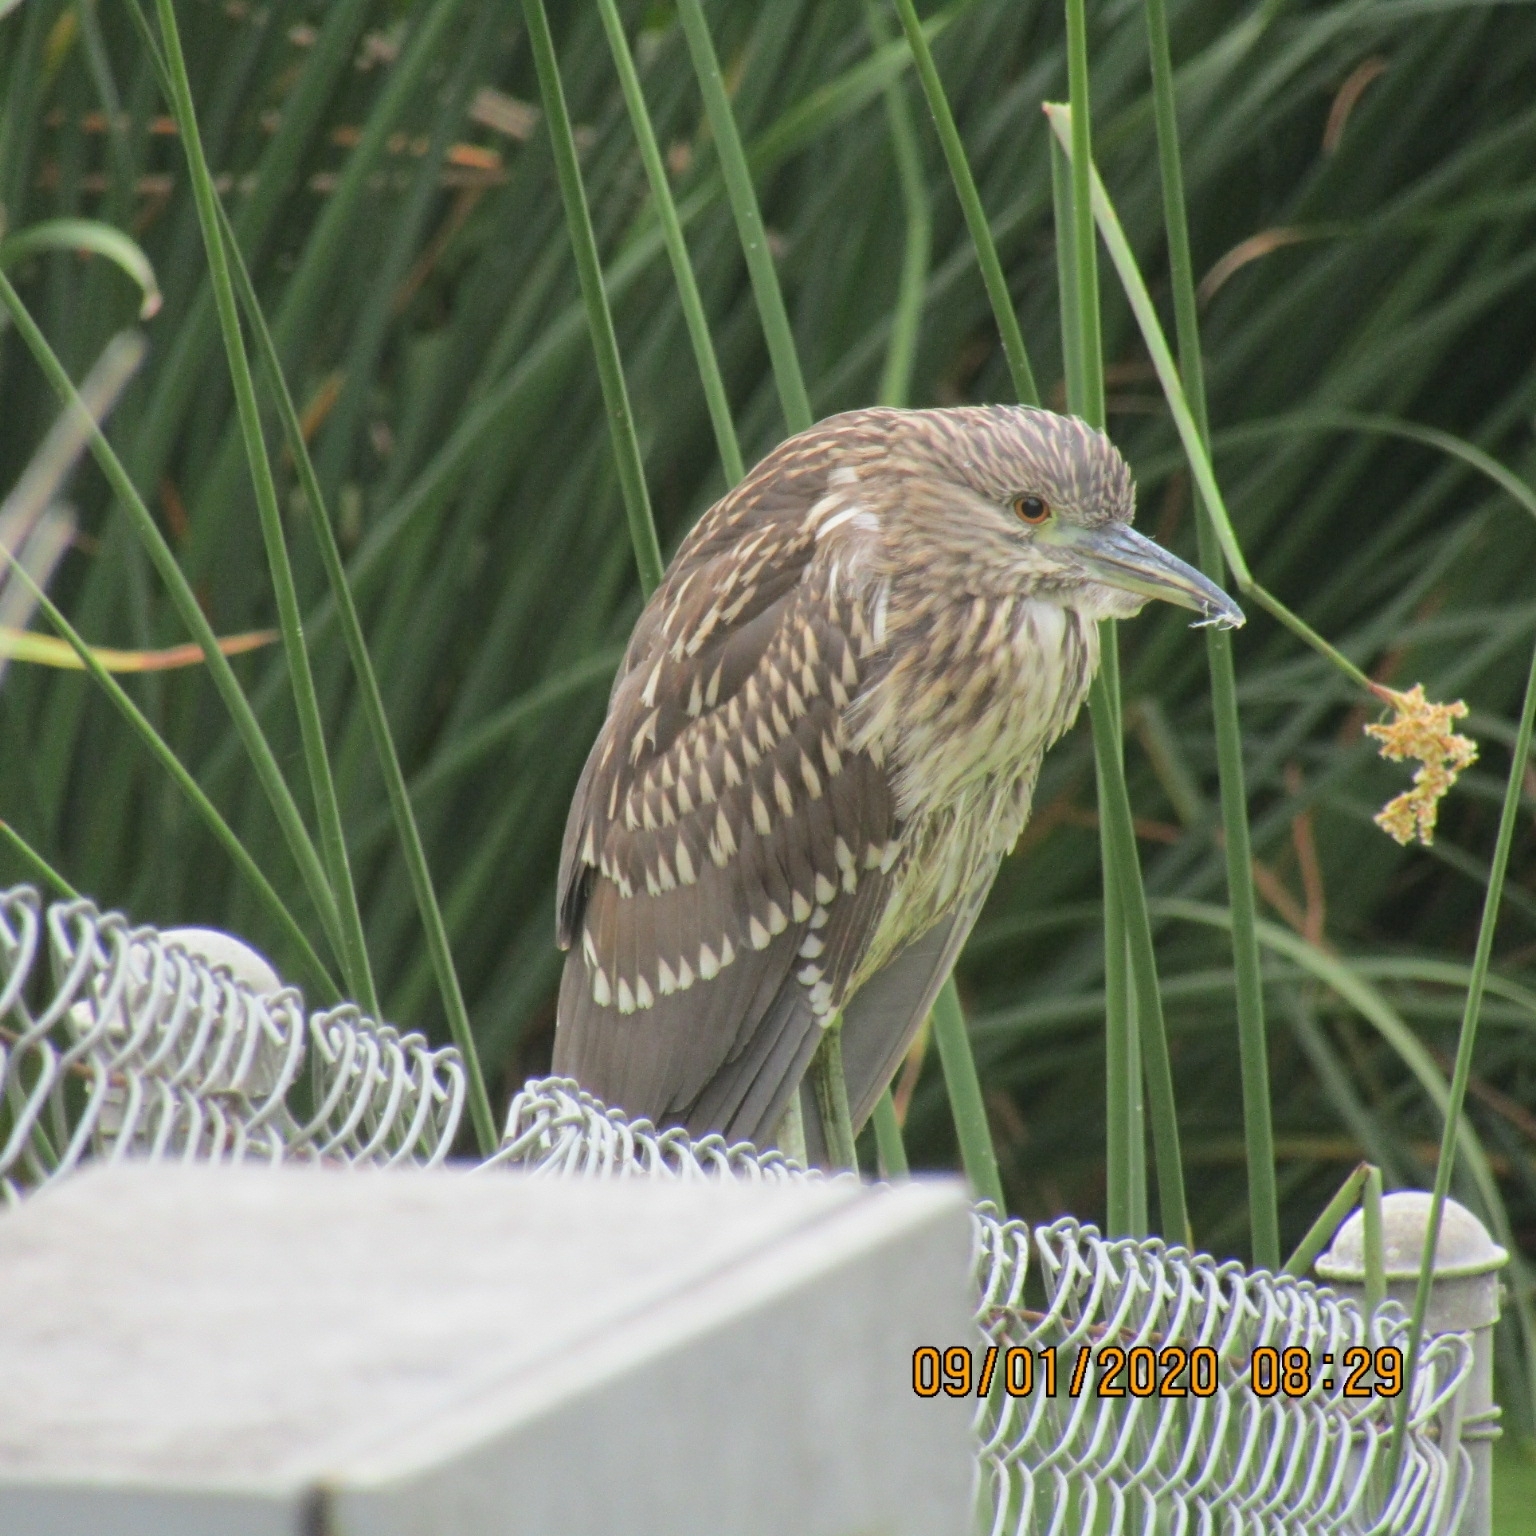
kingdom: Animalia
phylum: Chordata
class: Aves
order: Pelecaniformes
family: Ardeidae
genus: Nycticorax
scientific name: Nycticorax nycticorax
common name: Black-crowned night heron
